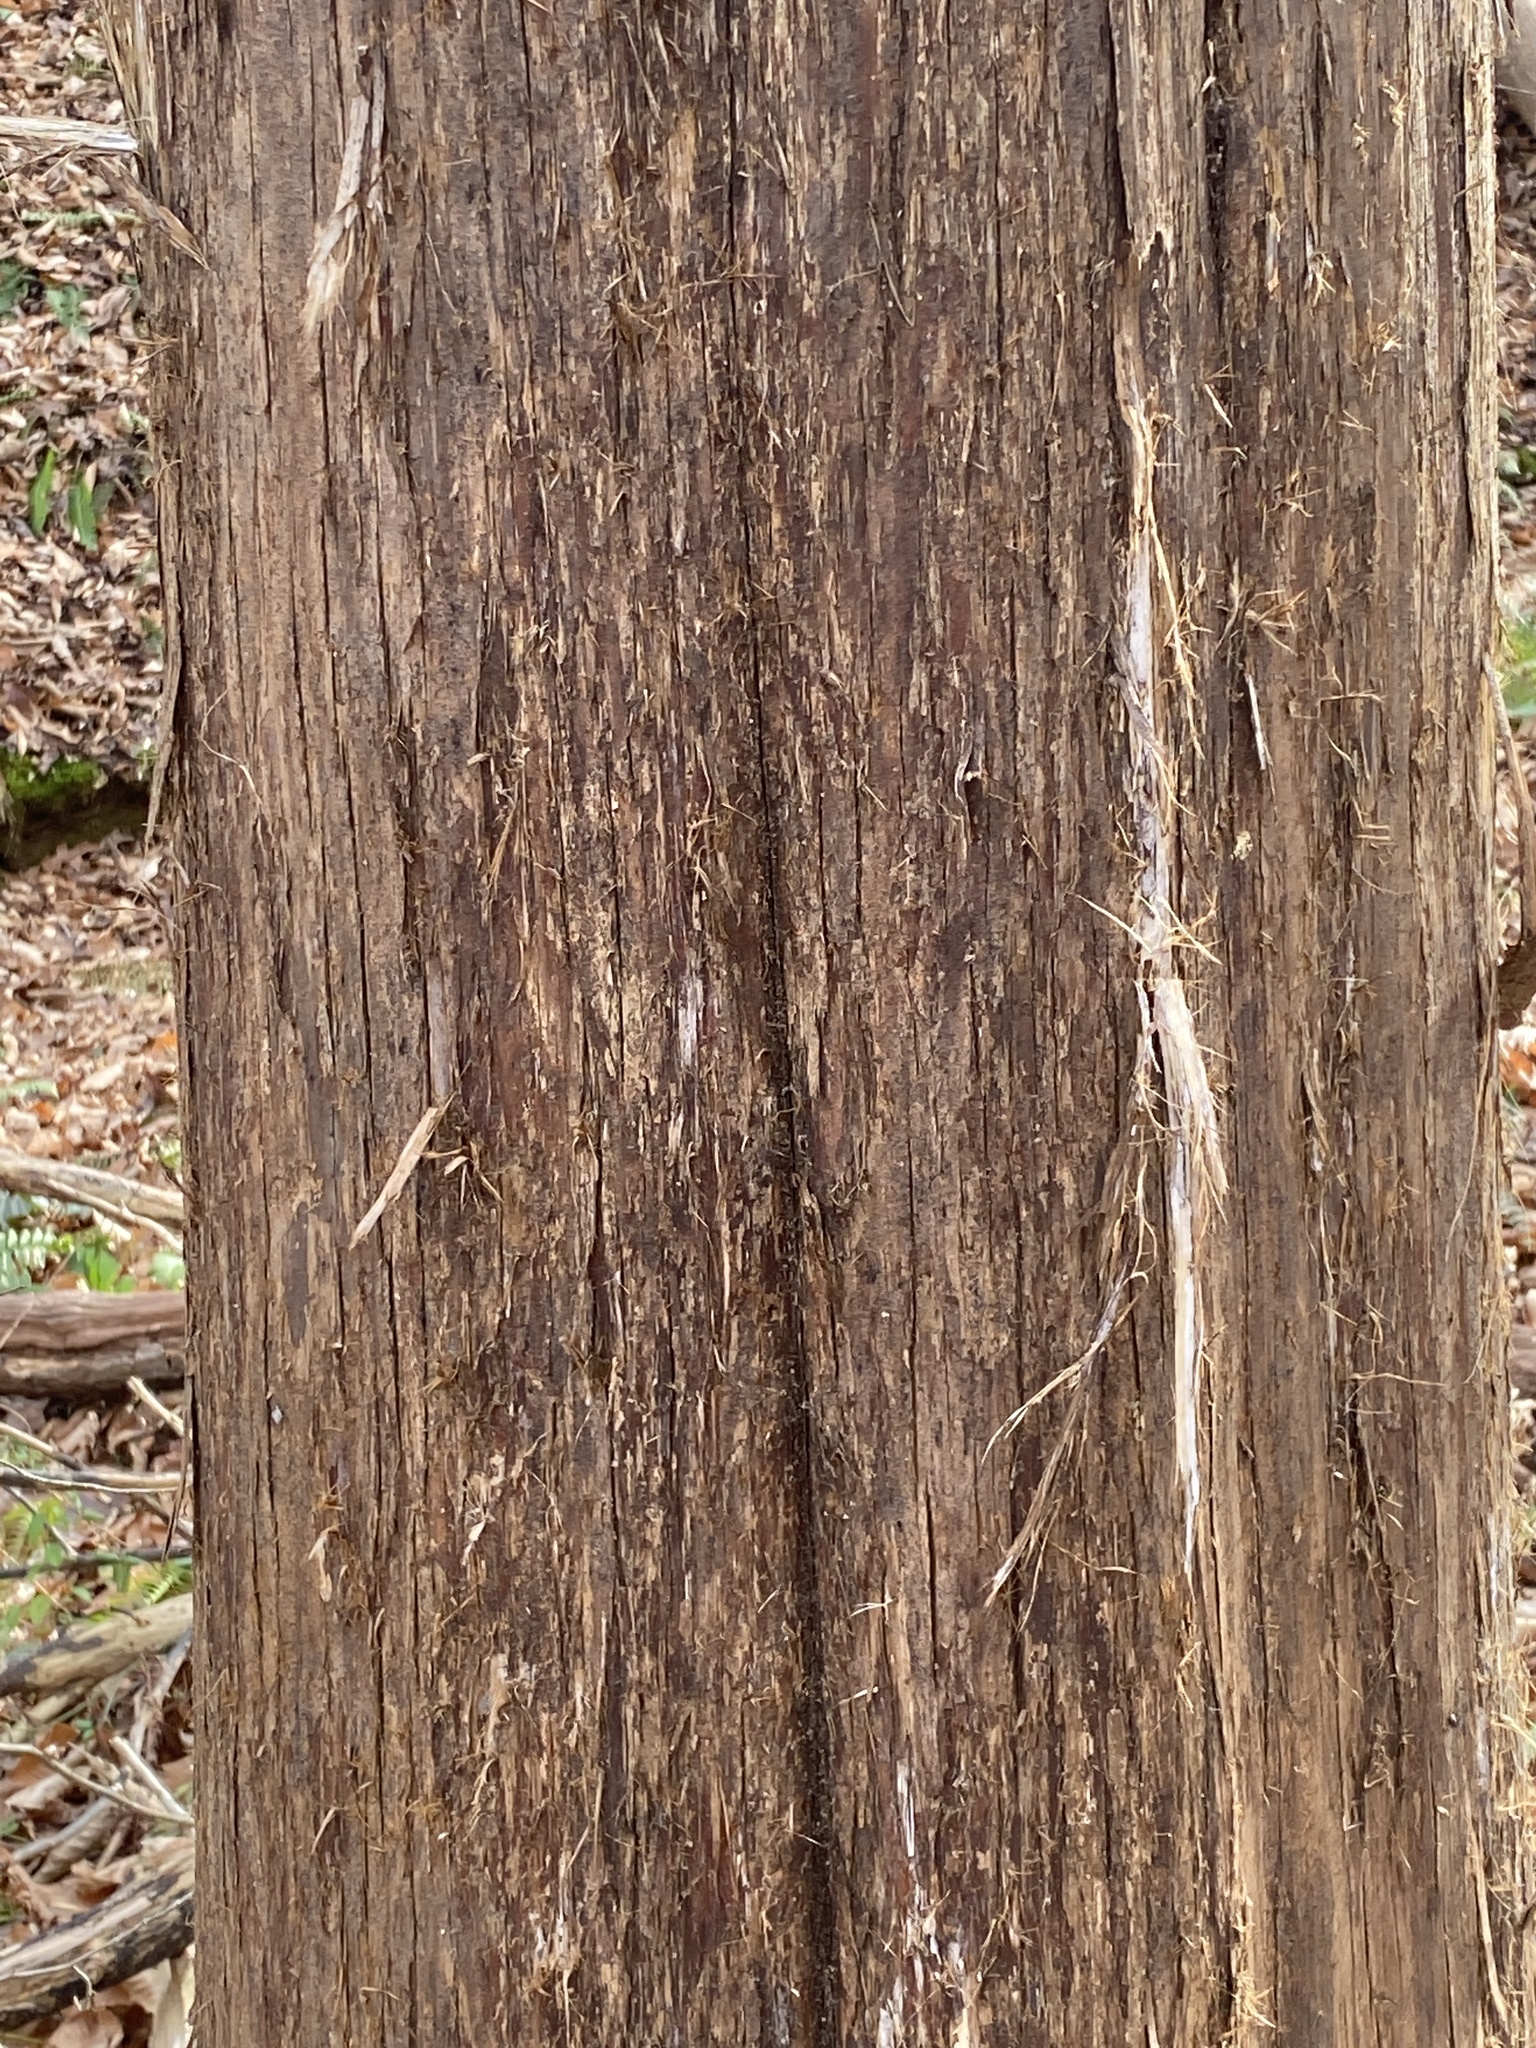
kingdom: Plantae
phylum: Tracheophyta
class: Pinopsida
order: Pinales
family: Cupressaceae
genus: Juniperus
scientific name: Juniperus virginiana
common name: Red juniper
